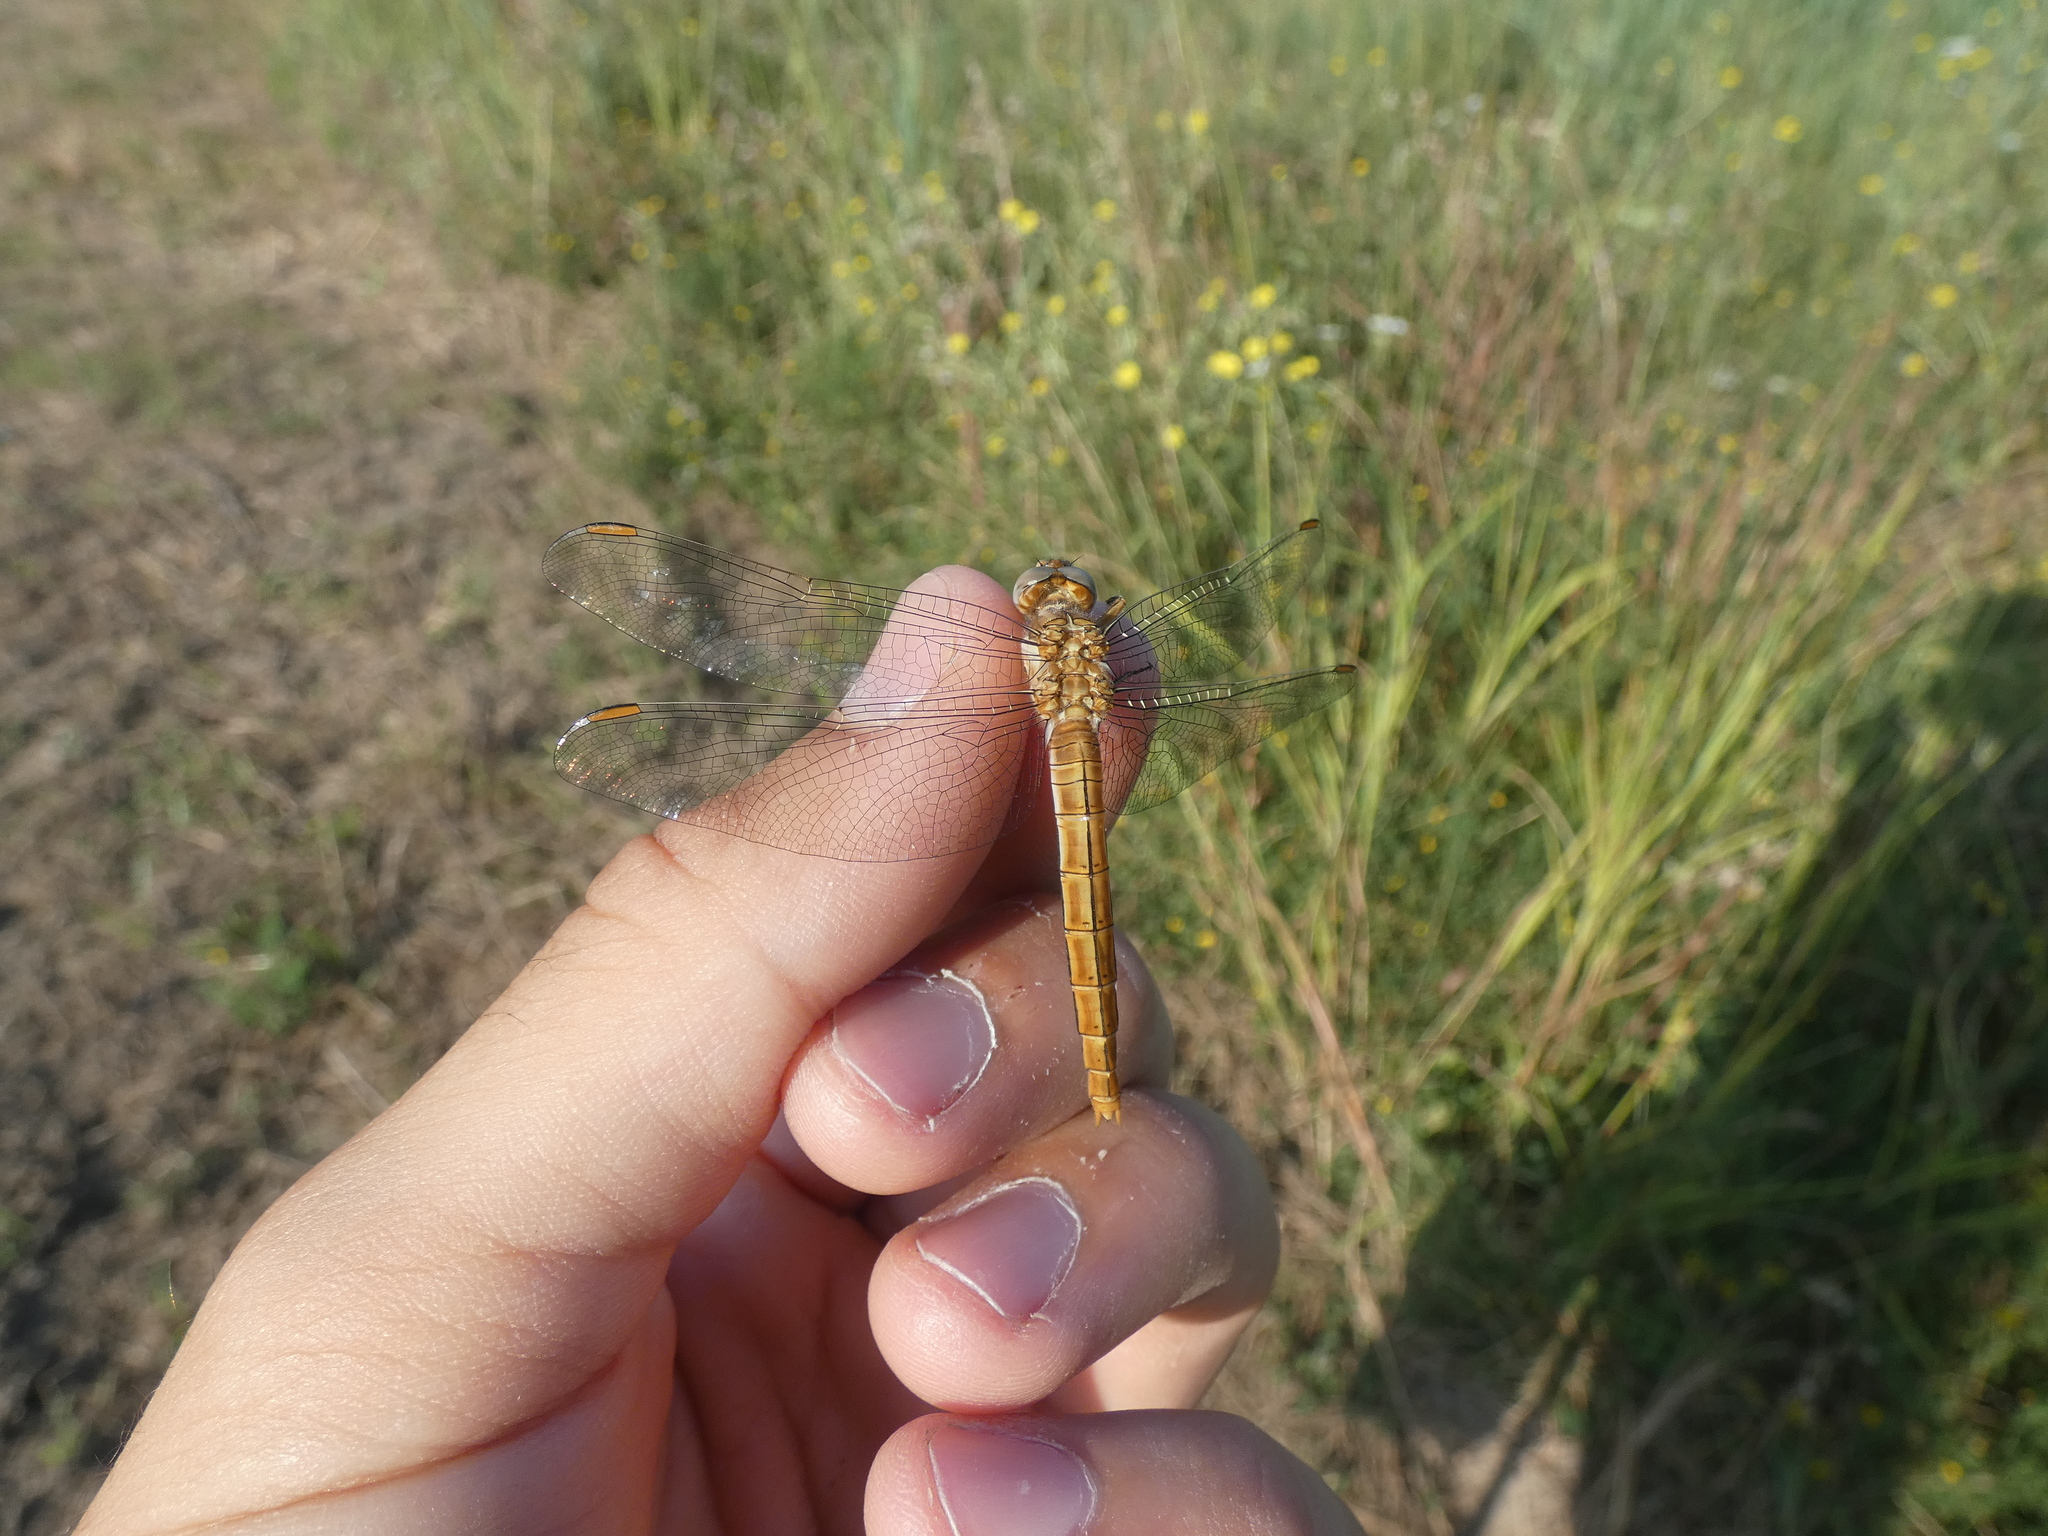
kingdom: Animalia
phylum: Arthropoda
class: Insecta
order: Odonata
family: Libellulidae
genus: Orthetrum
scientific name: Orthetrum brunneum
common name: Southern skimmer
